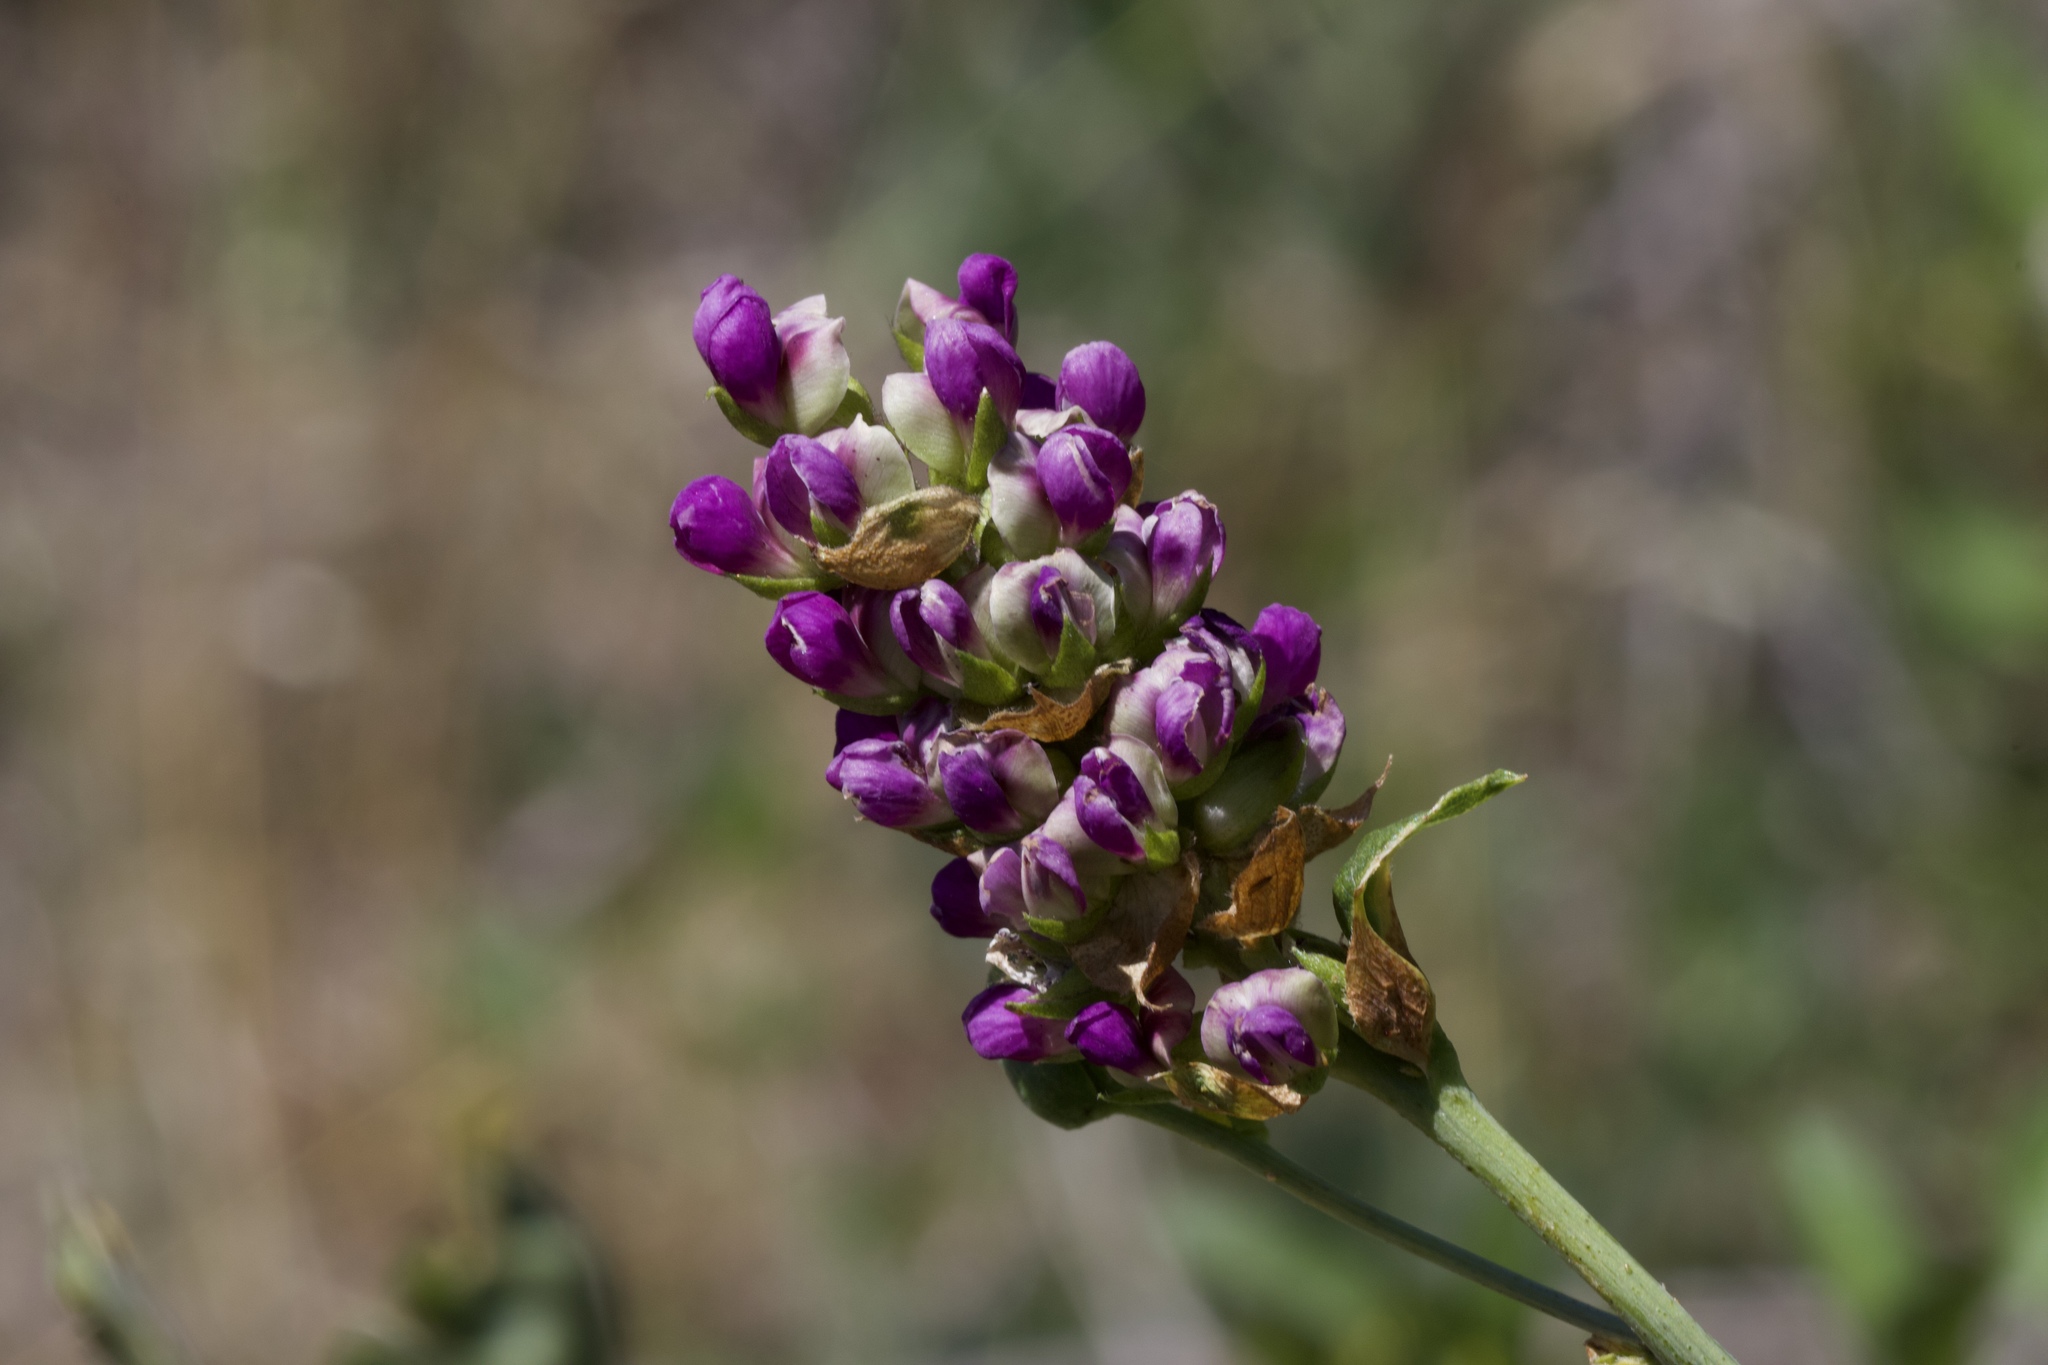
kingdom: Plantae
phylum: Tracheophyta
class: Magnoliopsida
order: Fabales
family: Fabaceae
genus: Hoita
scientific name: Hoita macrostachya
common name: Leatherroot
